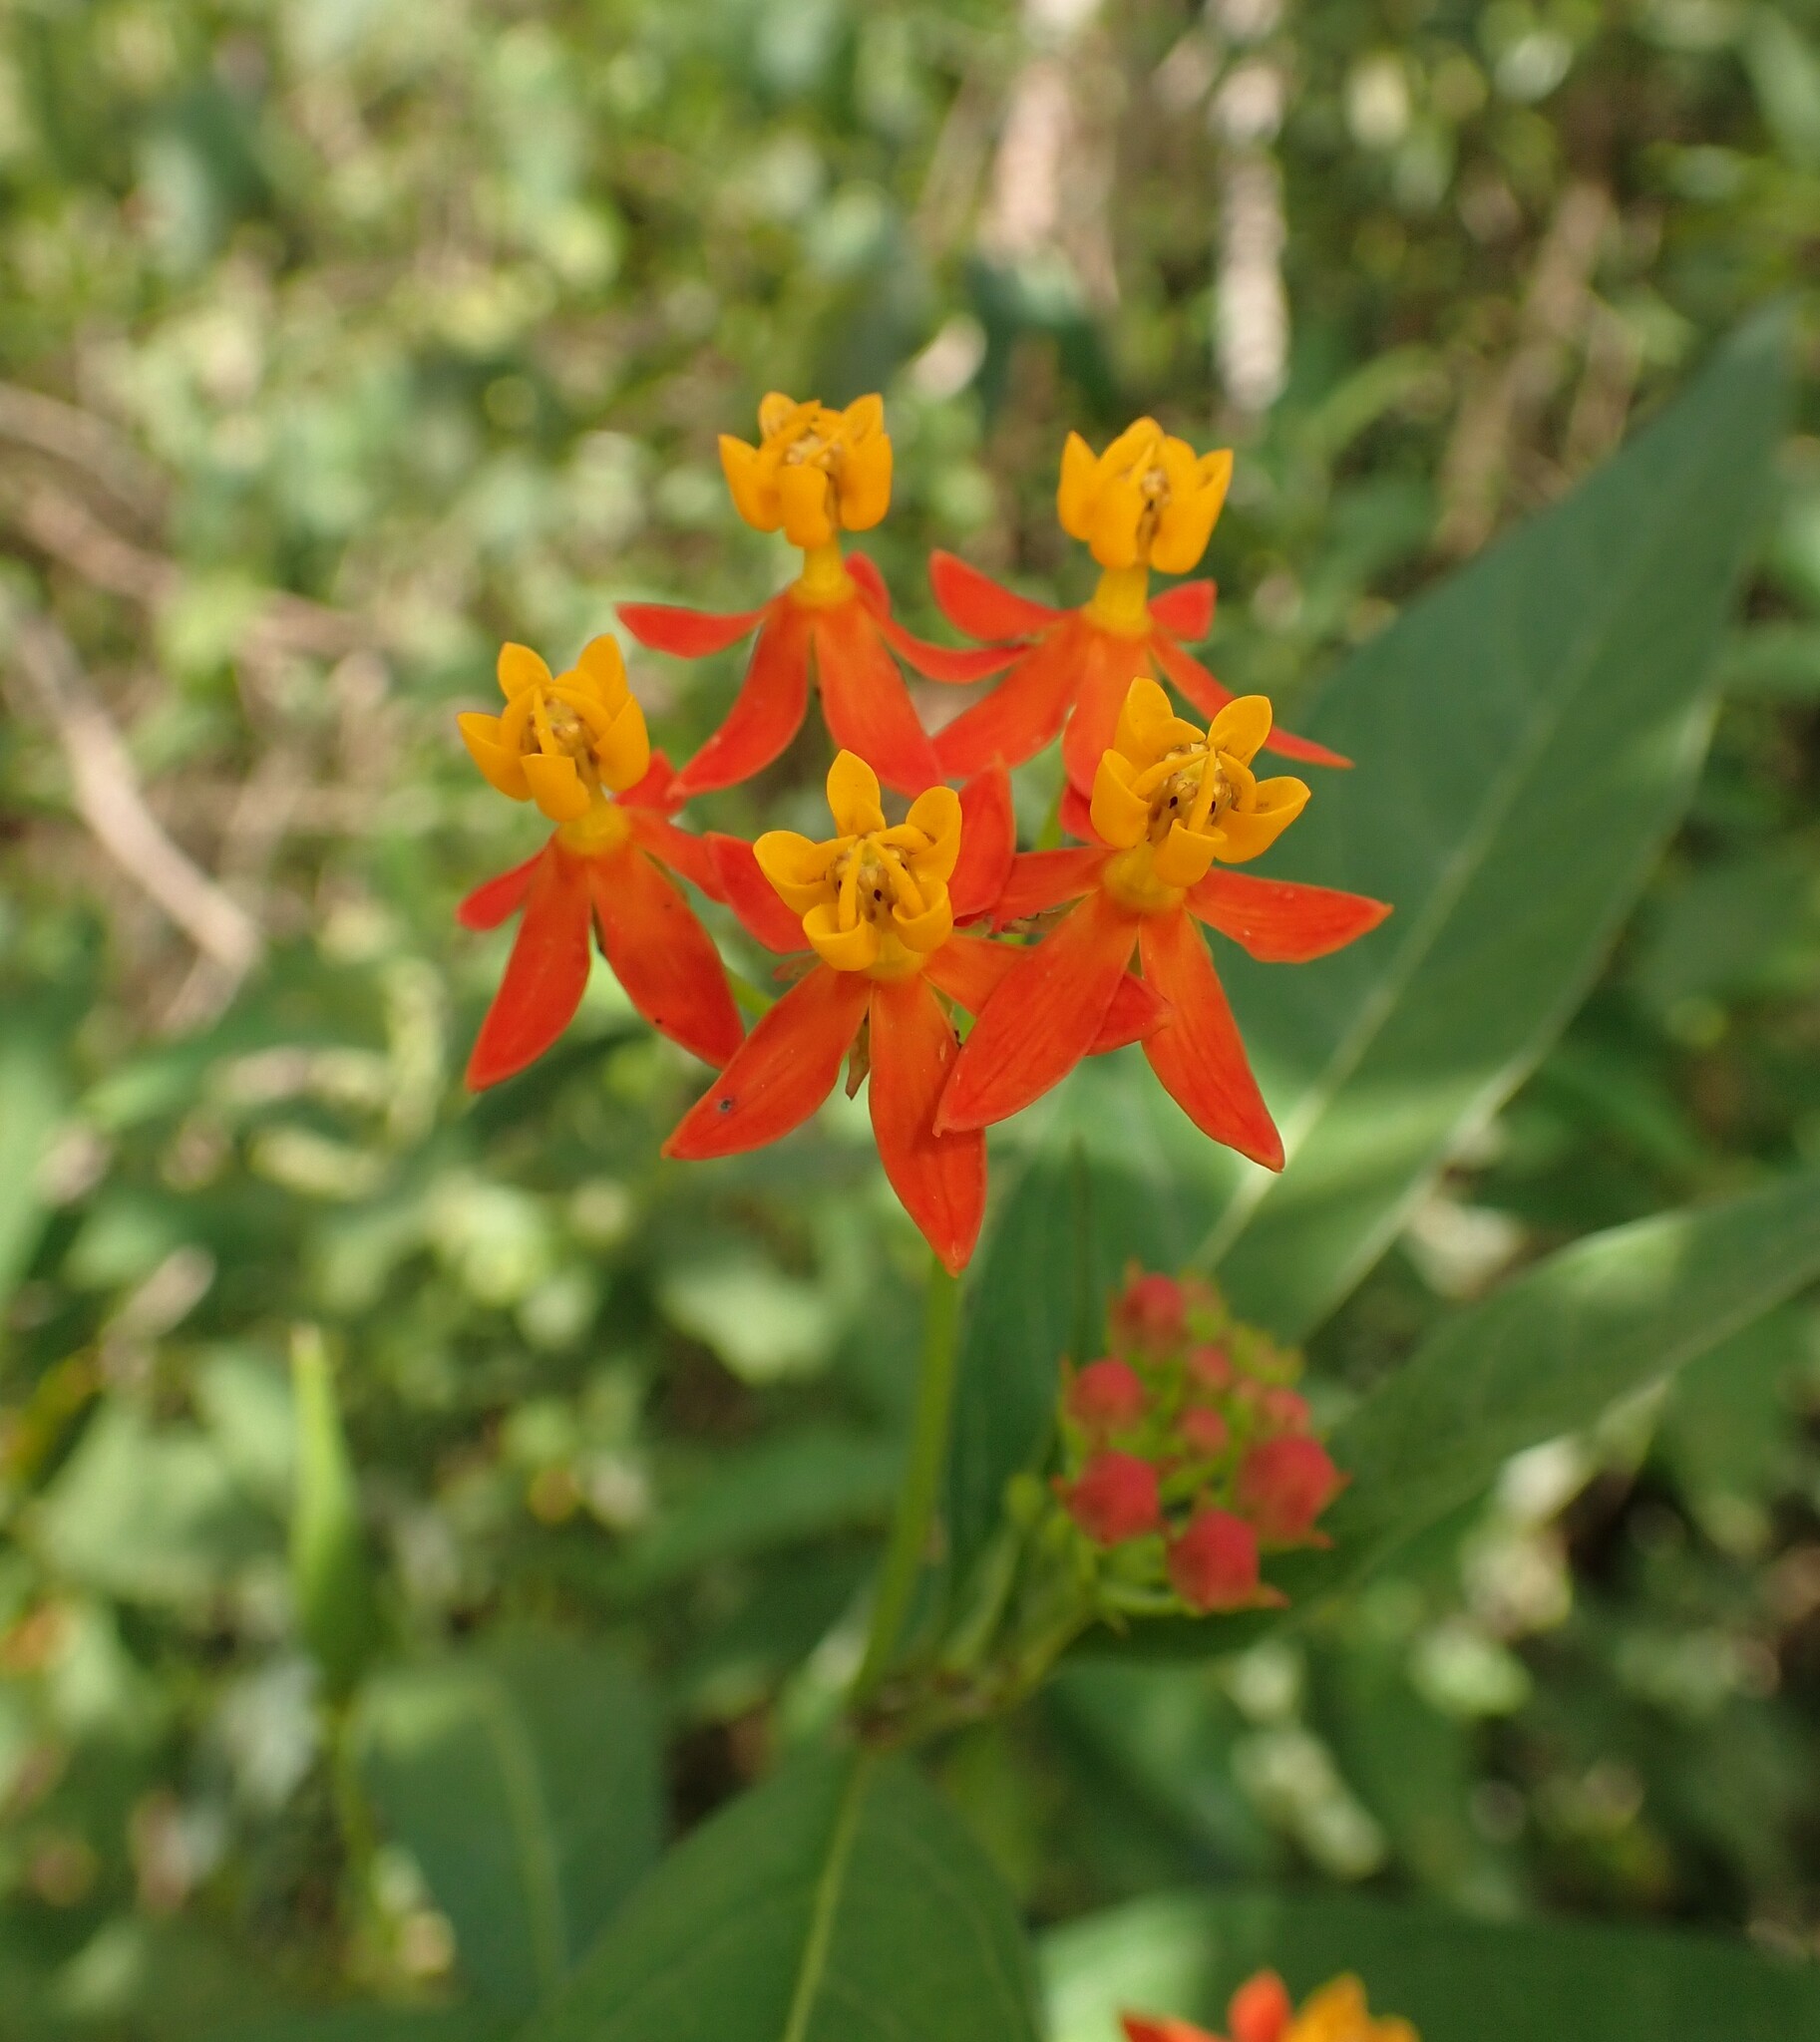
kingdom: Plantae
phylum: Tracheophyta
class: Magnoliopsida
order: Gentianales
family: Apocynaceae
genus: Asclepias
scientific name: Asclepias curassavica
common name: Bloodflower
